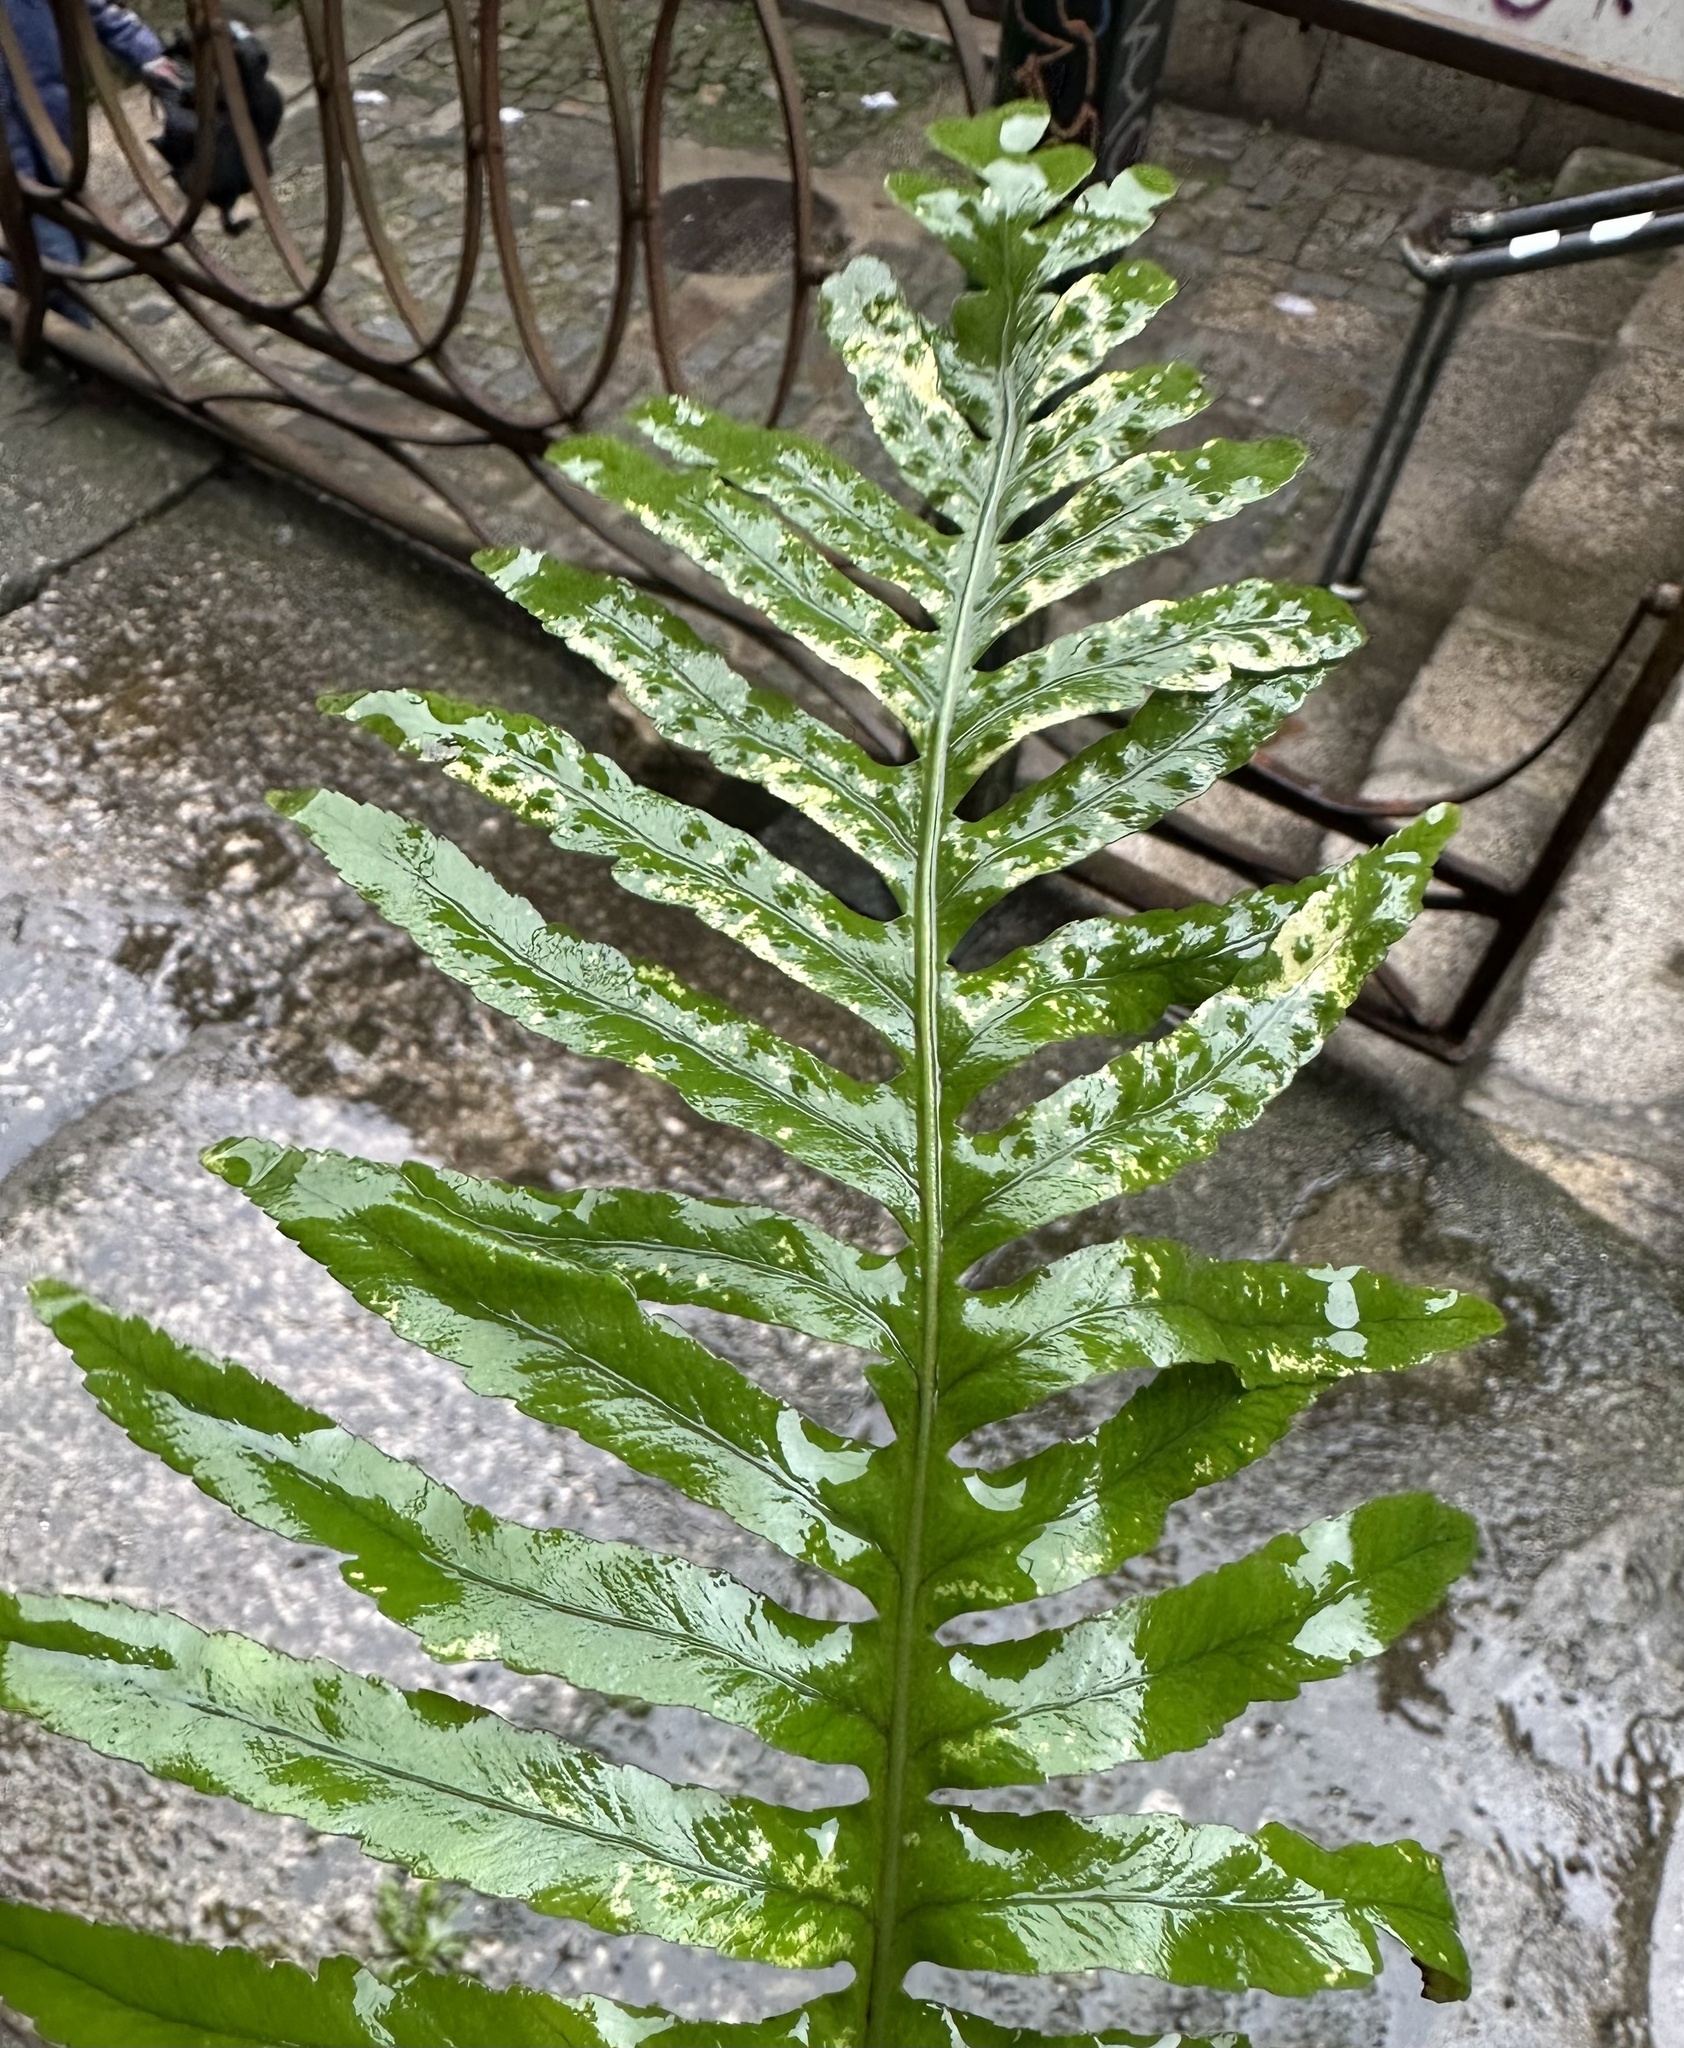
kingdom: Plantae
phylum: Tracheophyta
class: Polypodiopsida
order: Polypodiales
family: Polypodiaceae
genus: Polypodium
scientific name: Polypodium cambricum
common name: Southern polypody
